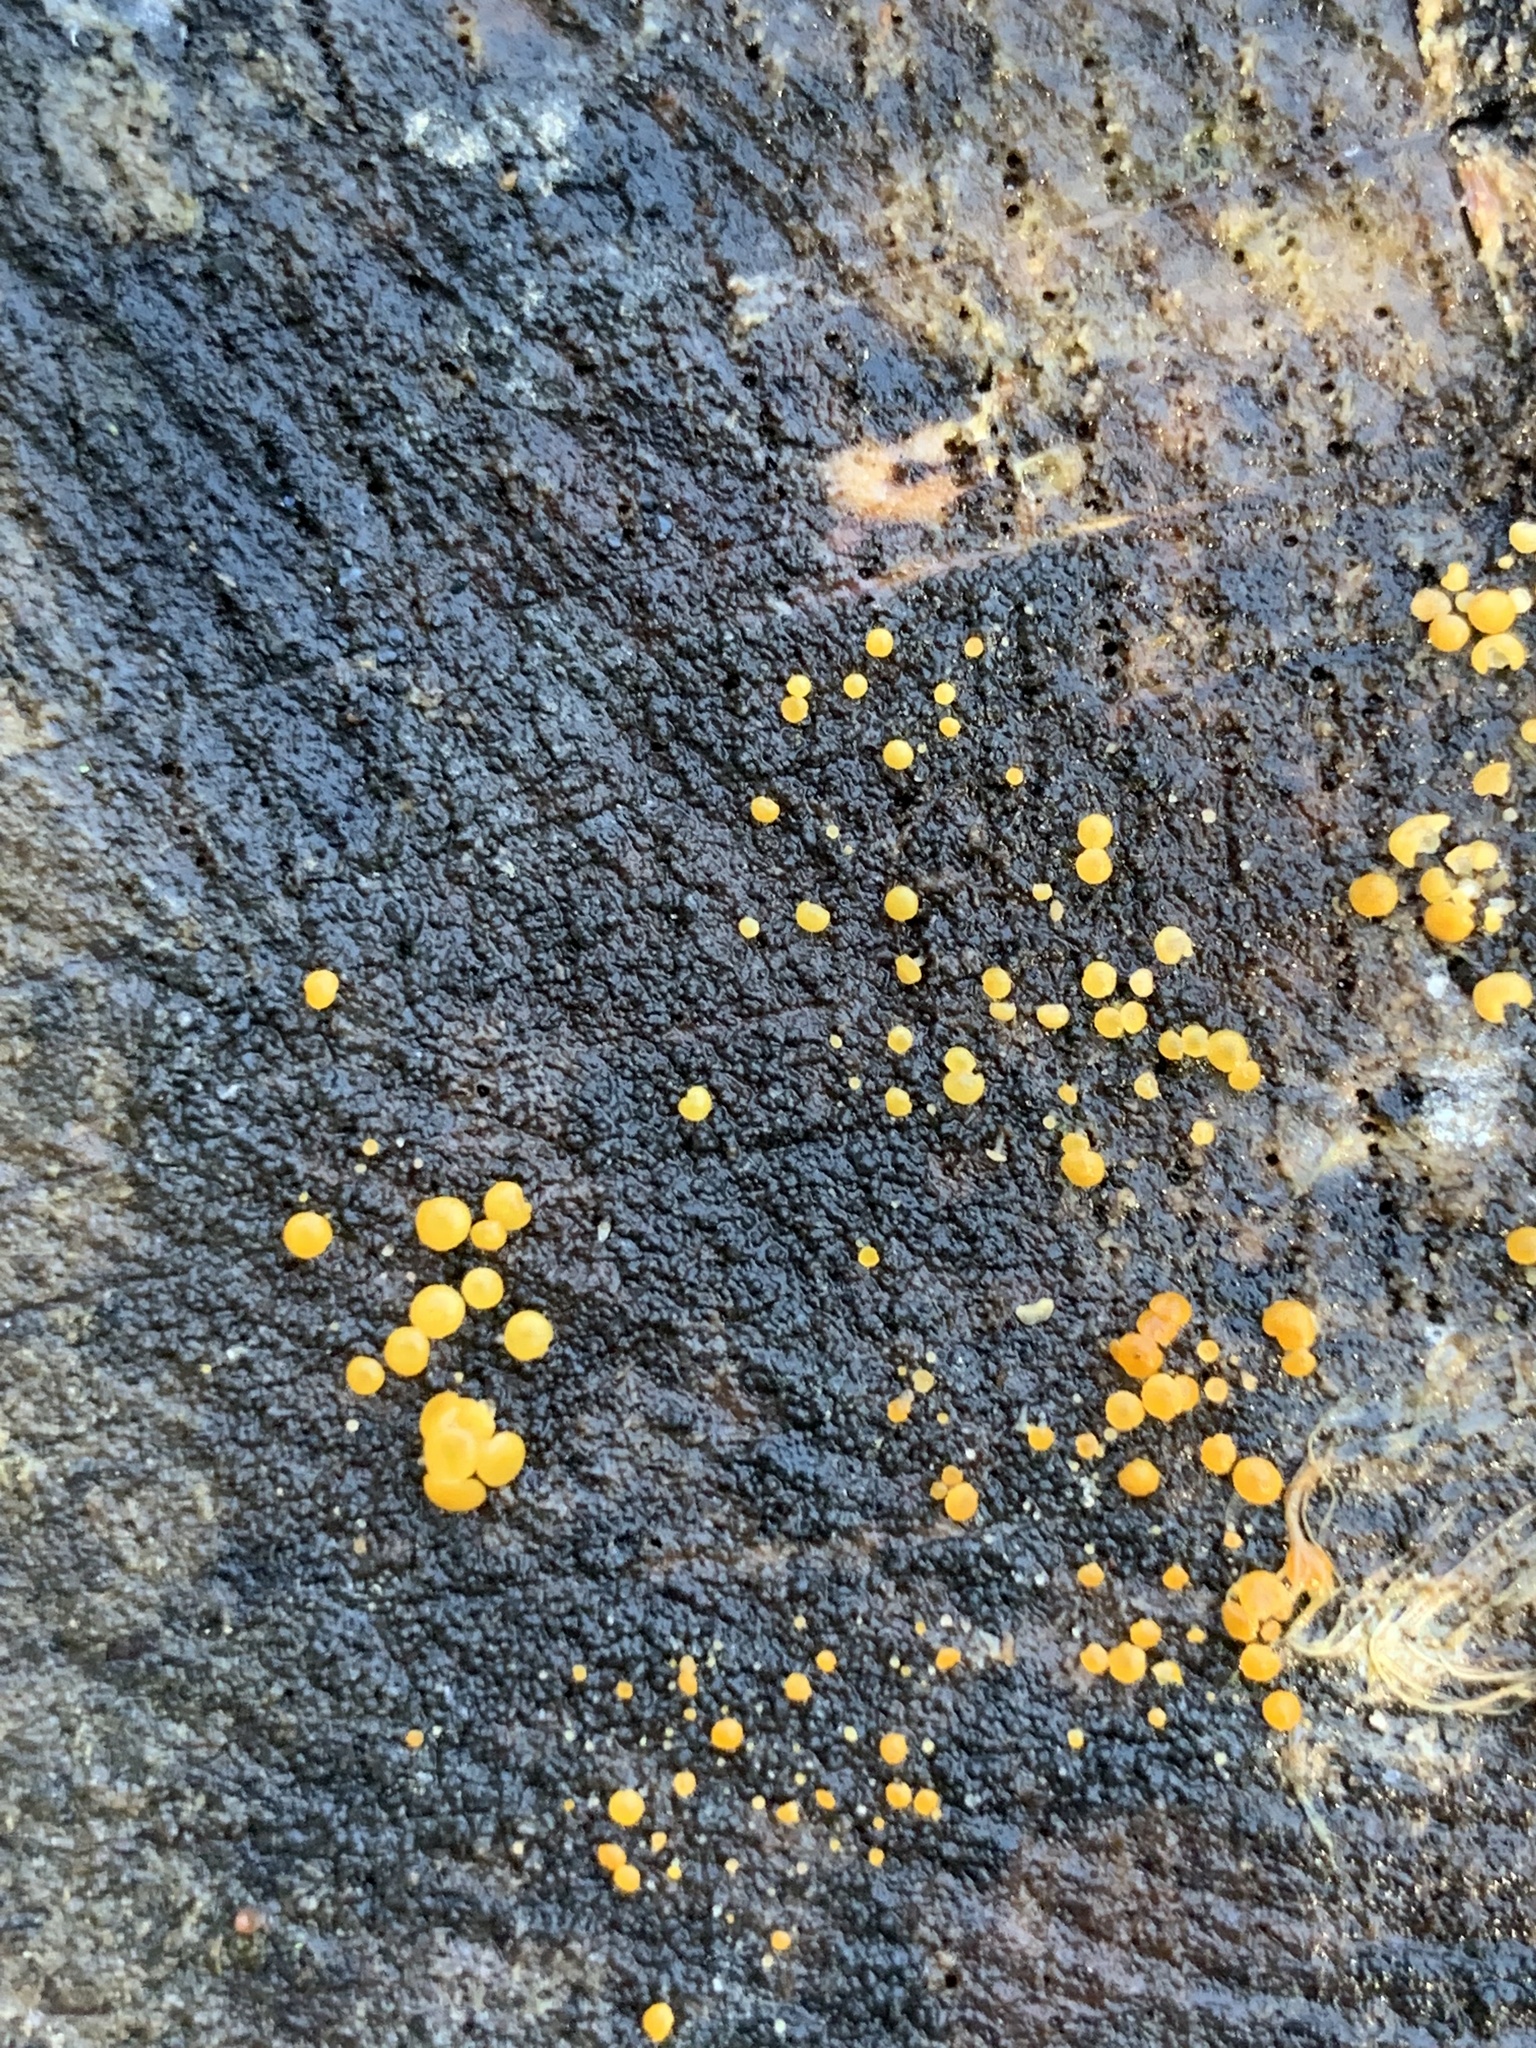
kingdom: Fungi
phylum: Ascomycota
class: Leotiomycetes
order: Helotiales
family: Pezizellaceae
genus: Calycina
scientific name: Calycina citrina
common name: Yellow fairy cups
